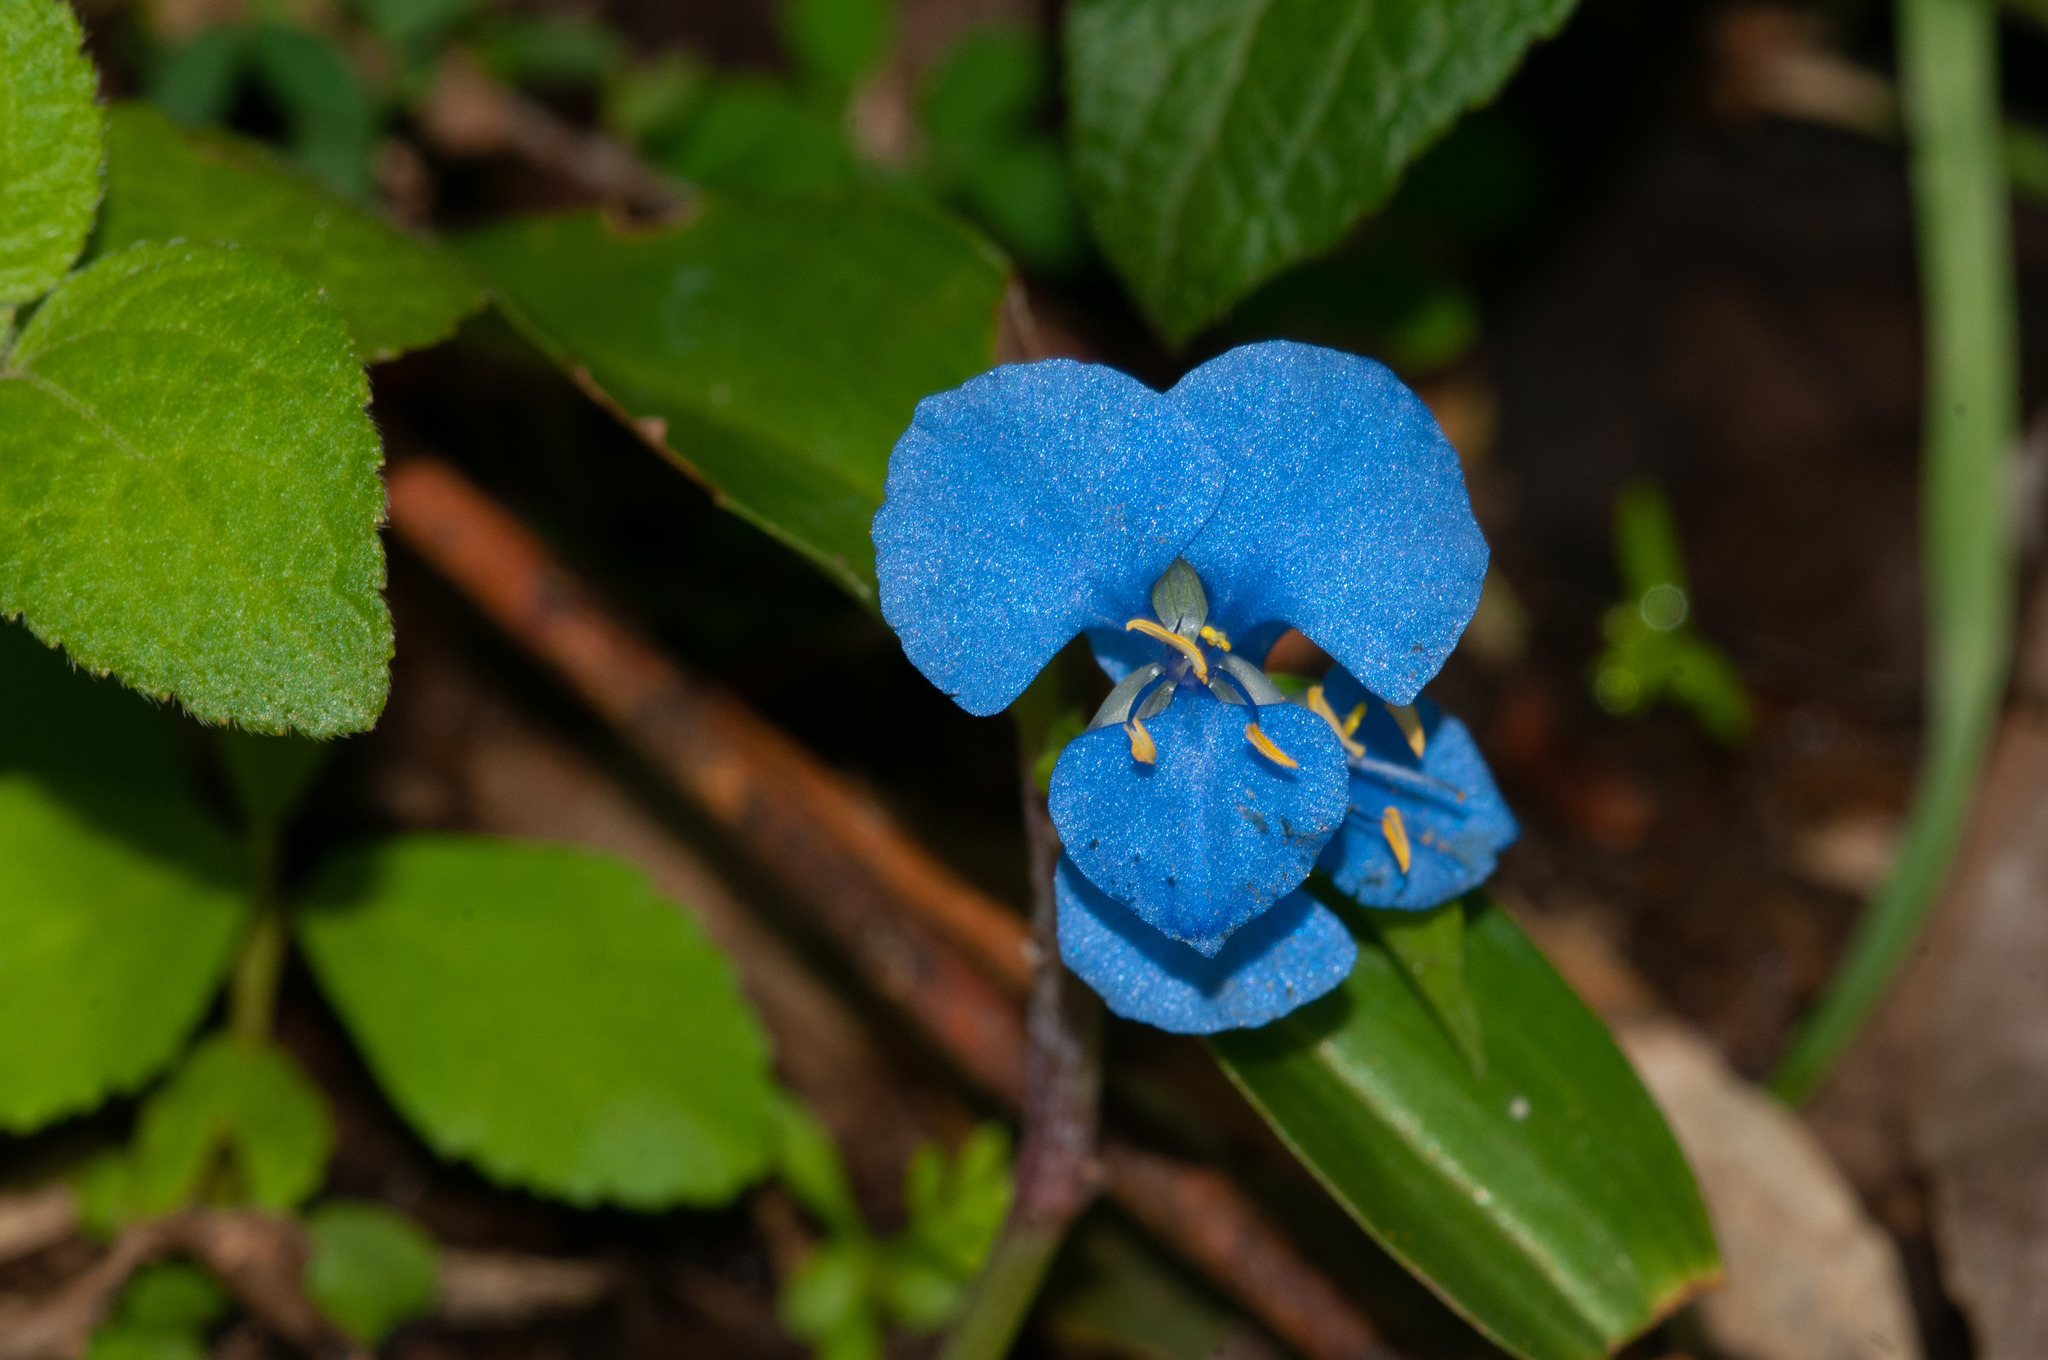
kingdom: Plantae
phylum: Tracheophyta
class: Liliopsida
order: Commelinales
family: Commelinaceae
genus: Commelina
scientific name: Commelina cyanea
